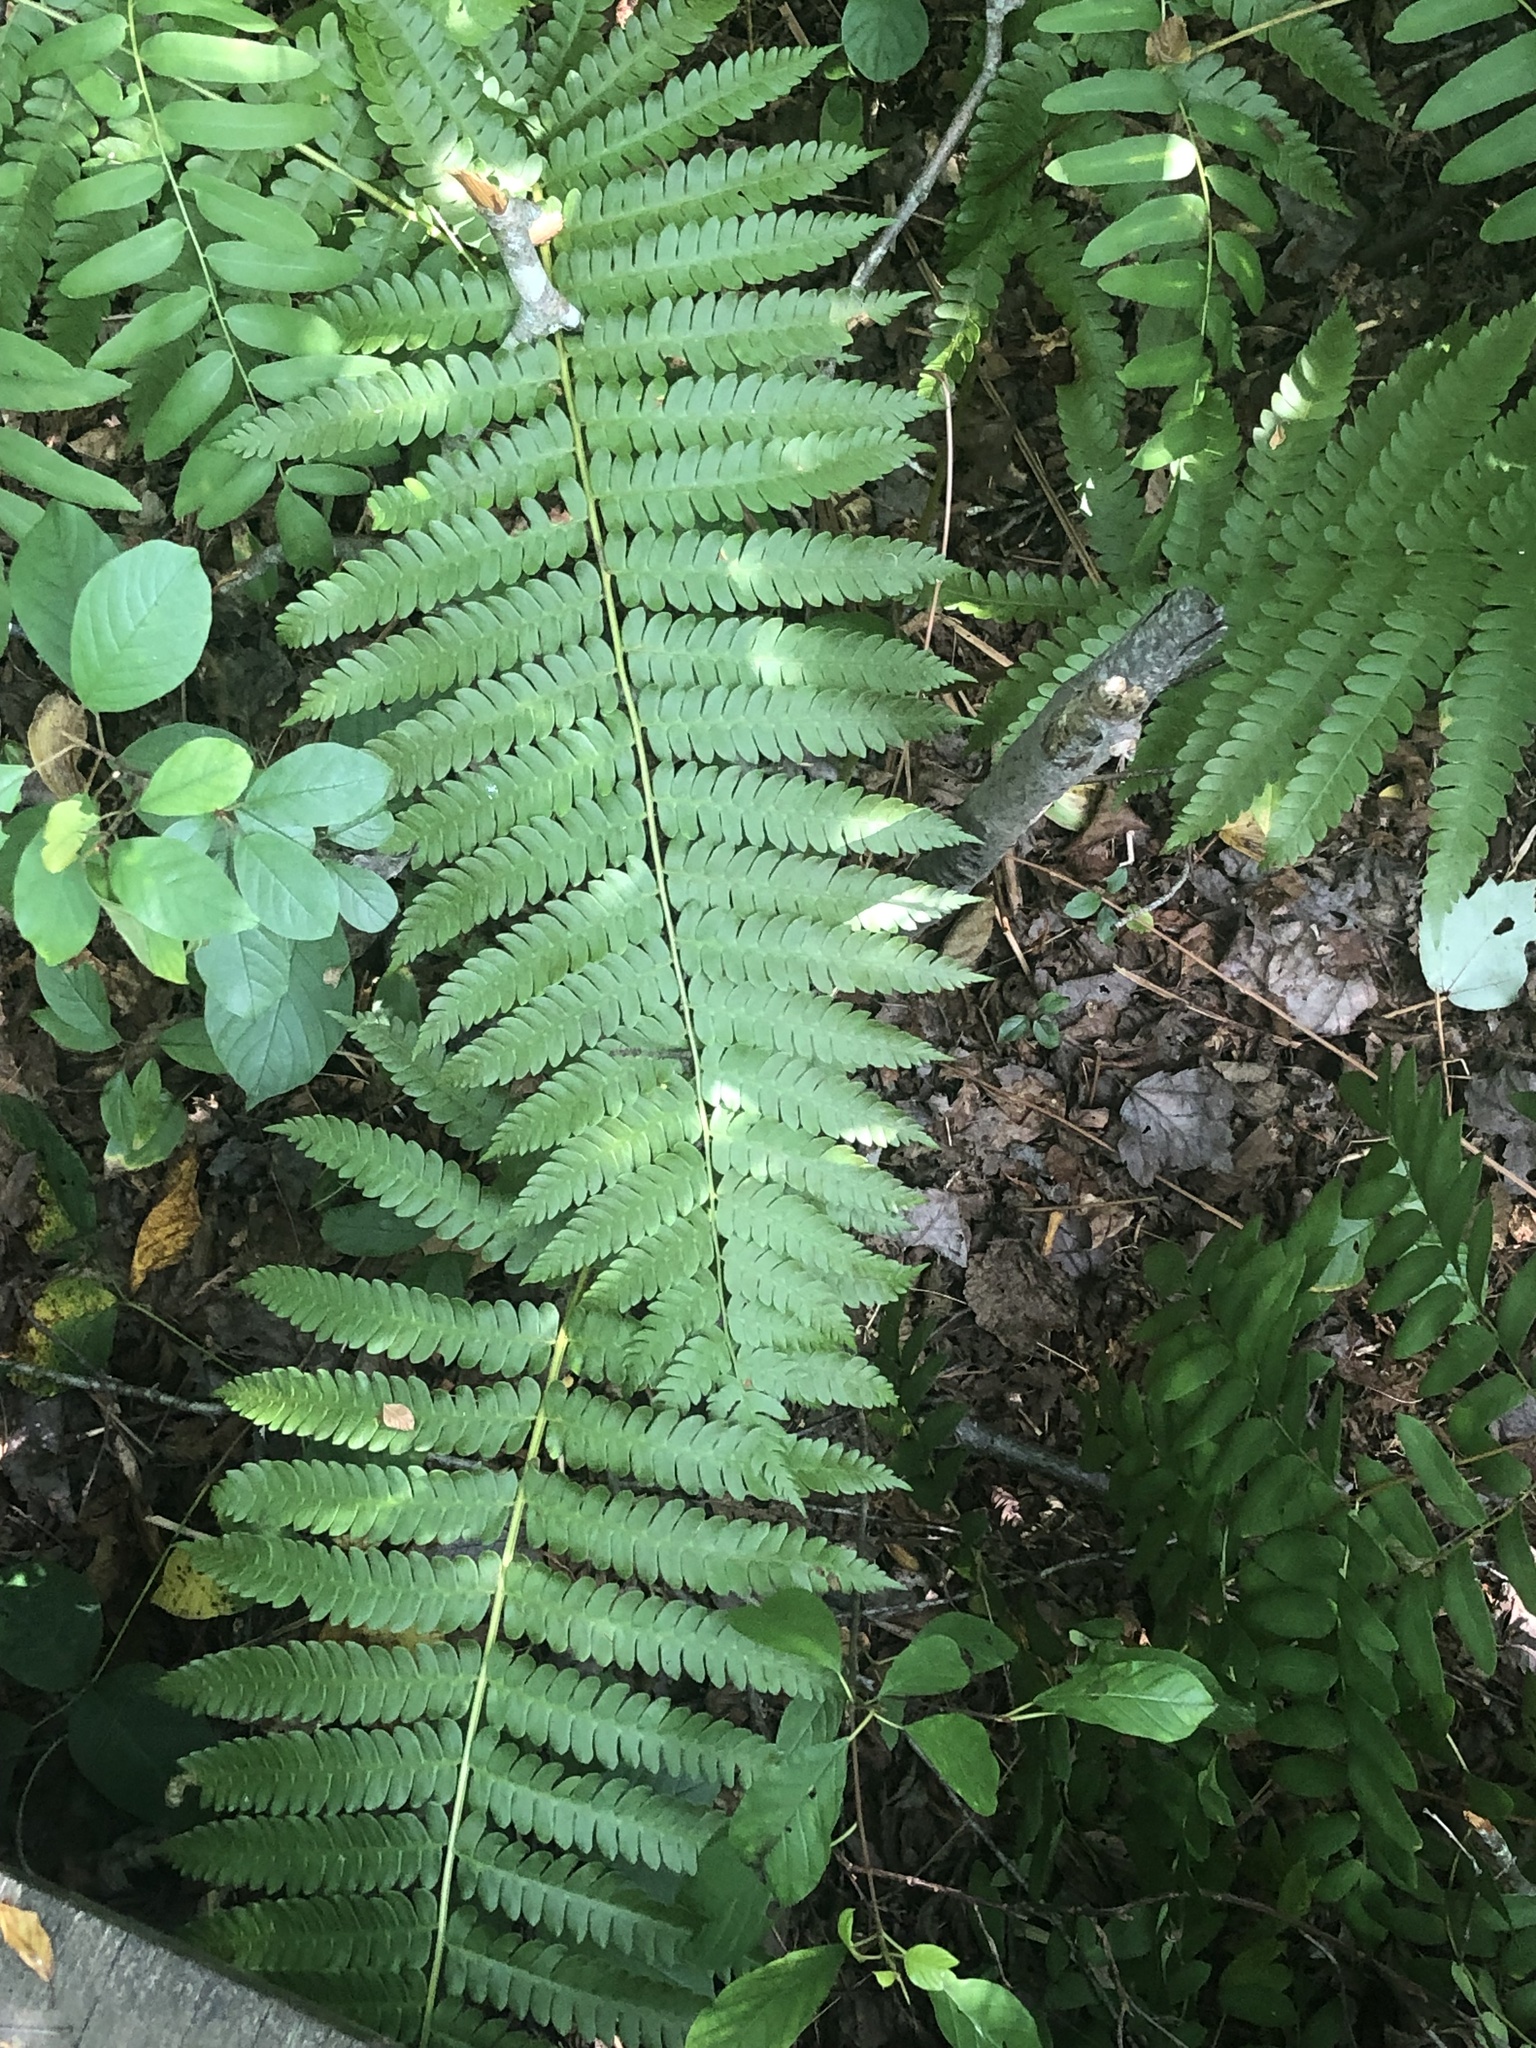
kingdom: Plantae
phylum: Tracheophyta
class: Polypodiopsida
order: Osmundales
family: Osmundaceae
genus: Osmundastrum
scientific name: Osmundastrum cinnamomeum
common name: Cinnamon fern
